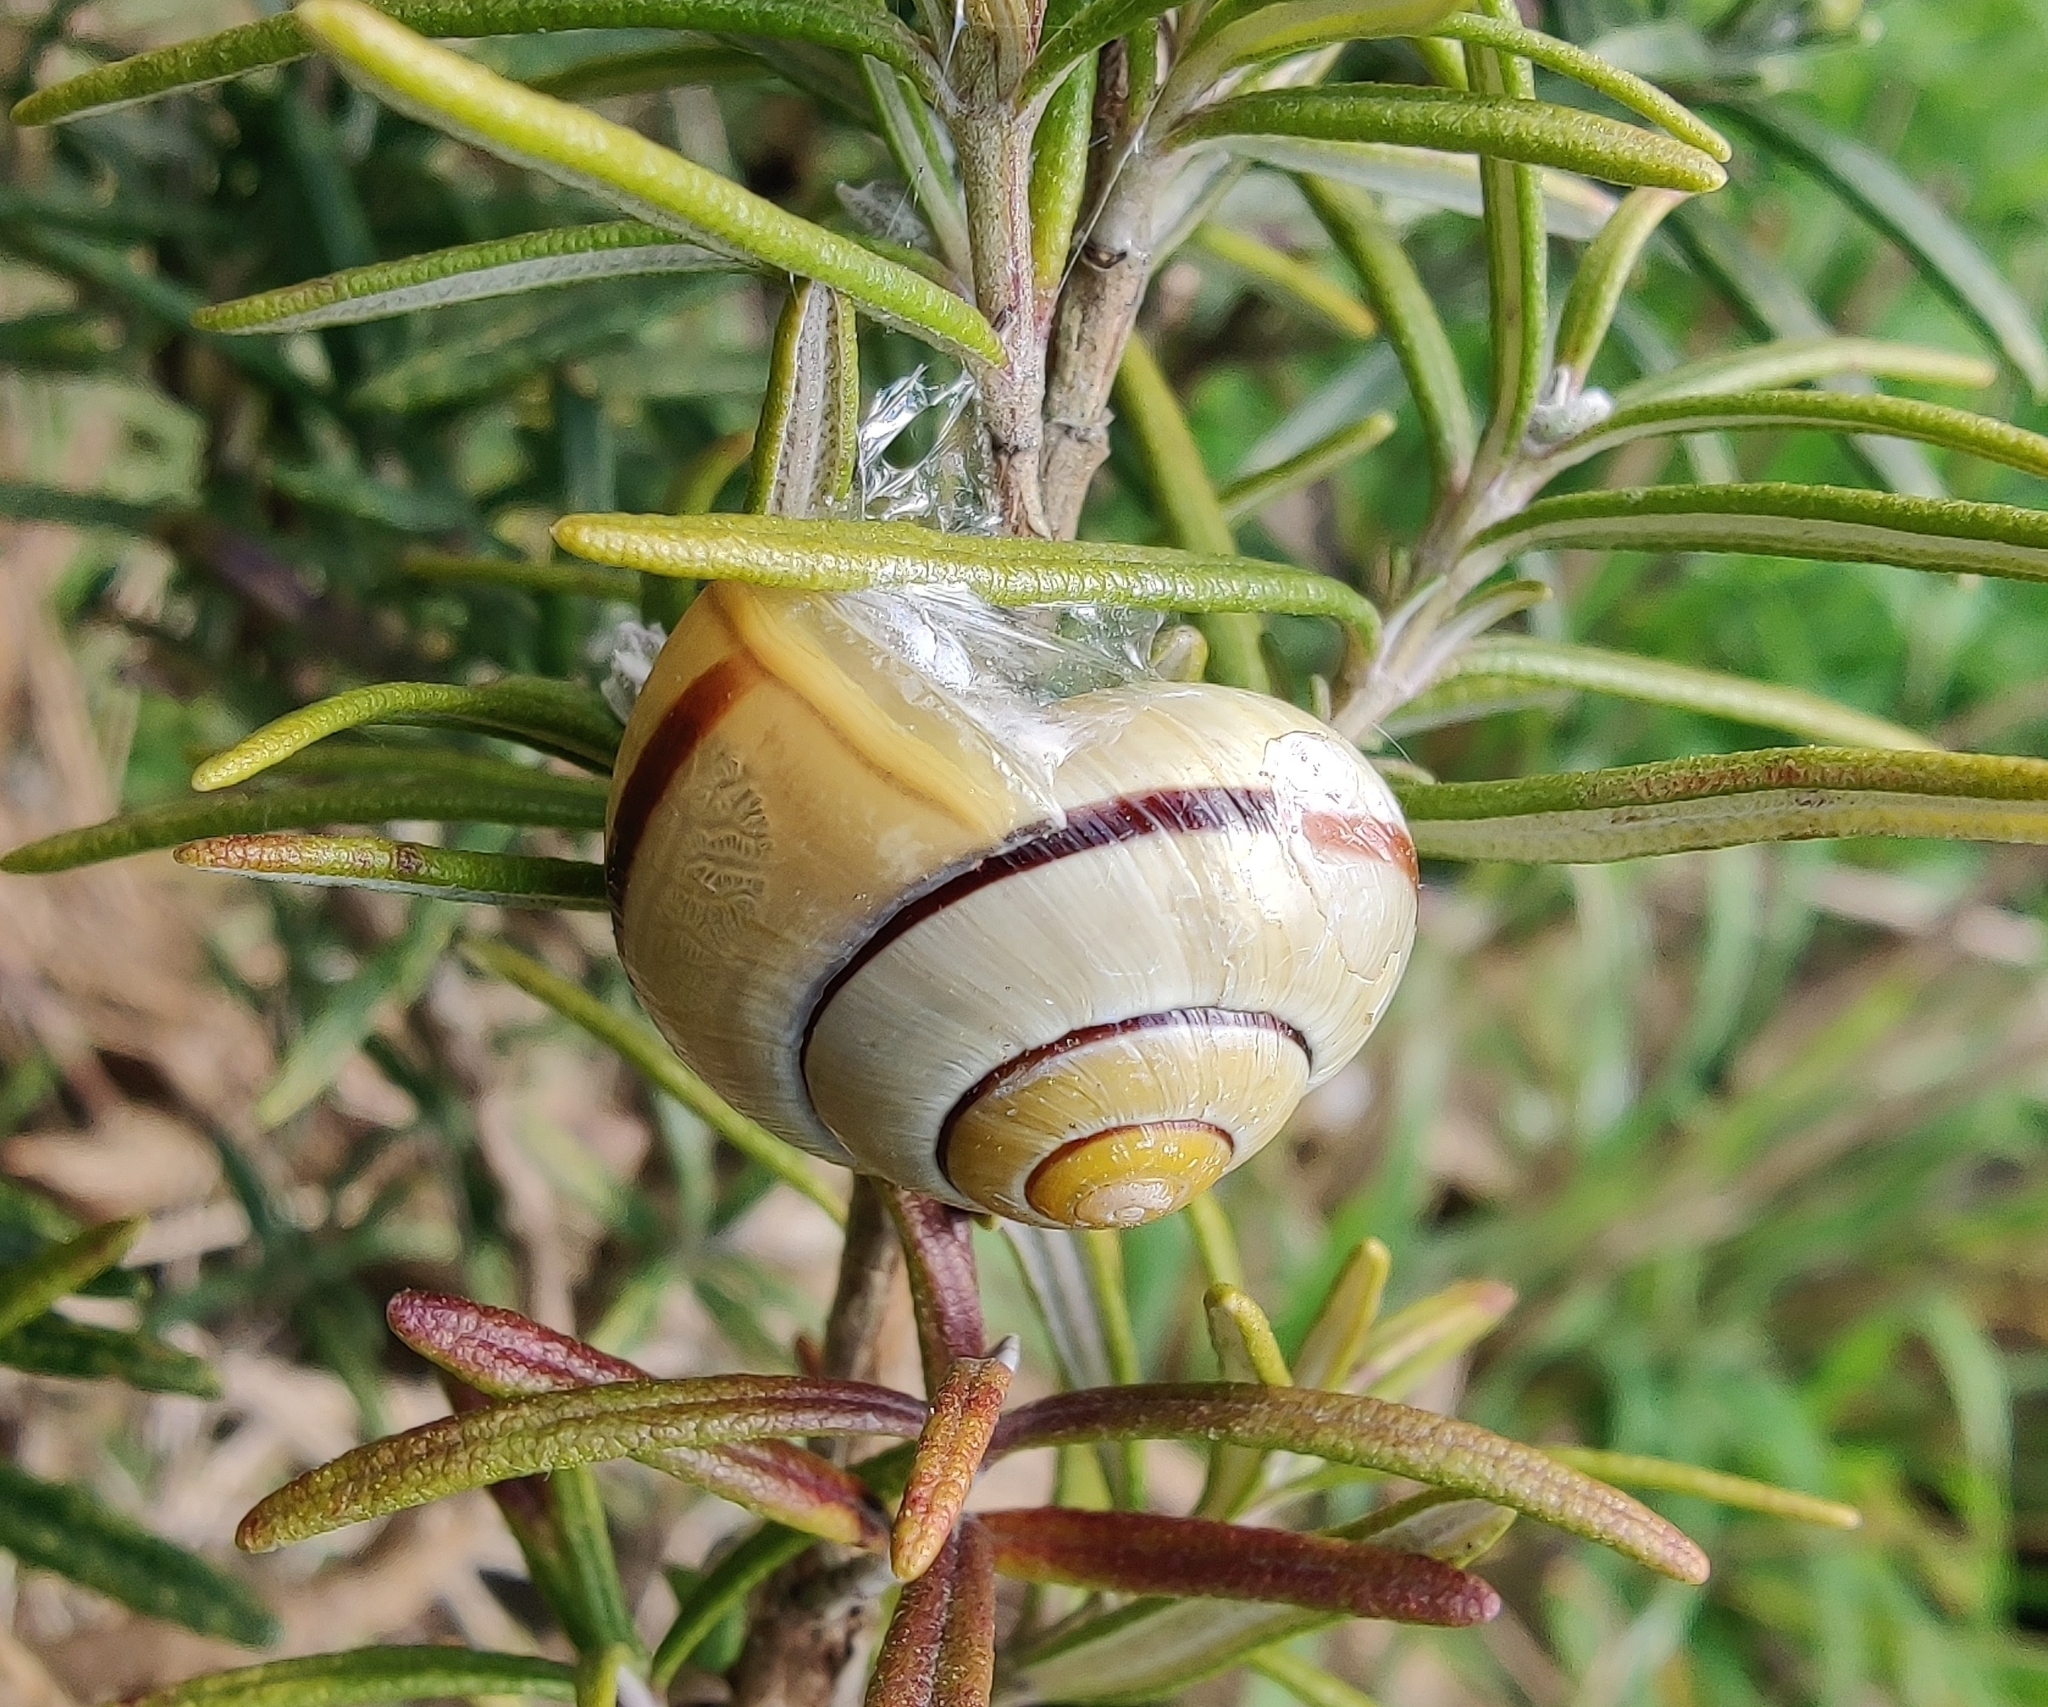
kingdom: Animalia
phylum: Mollusca
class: Gastropoda
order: Stylommatophora
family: Helicidae
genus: Cepaea
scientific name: Cepaea nemoralis
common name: Grovesnail
